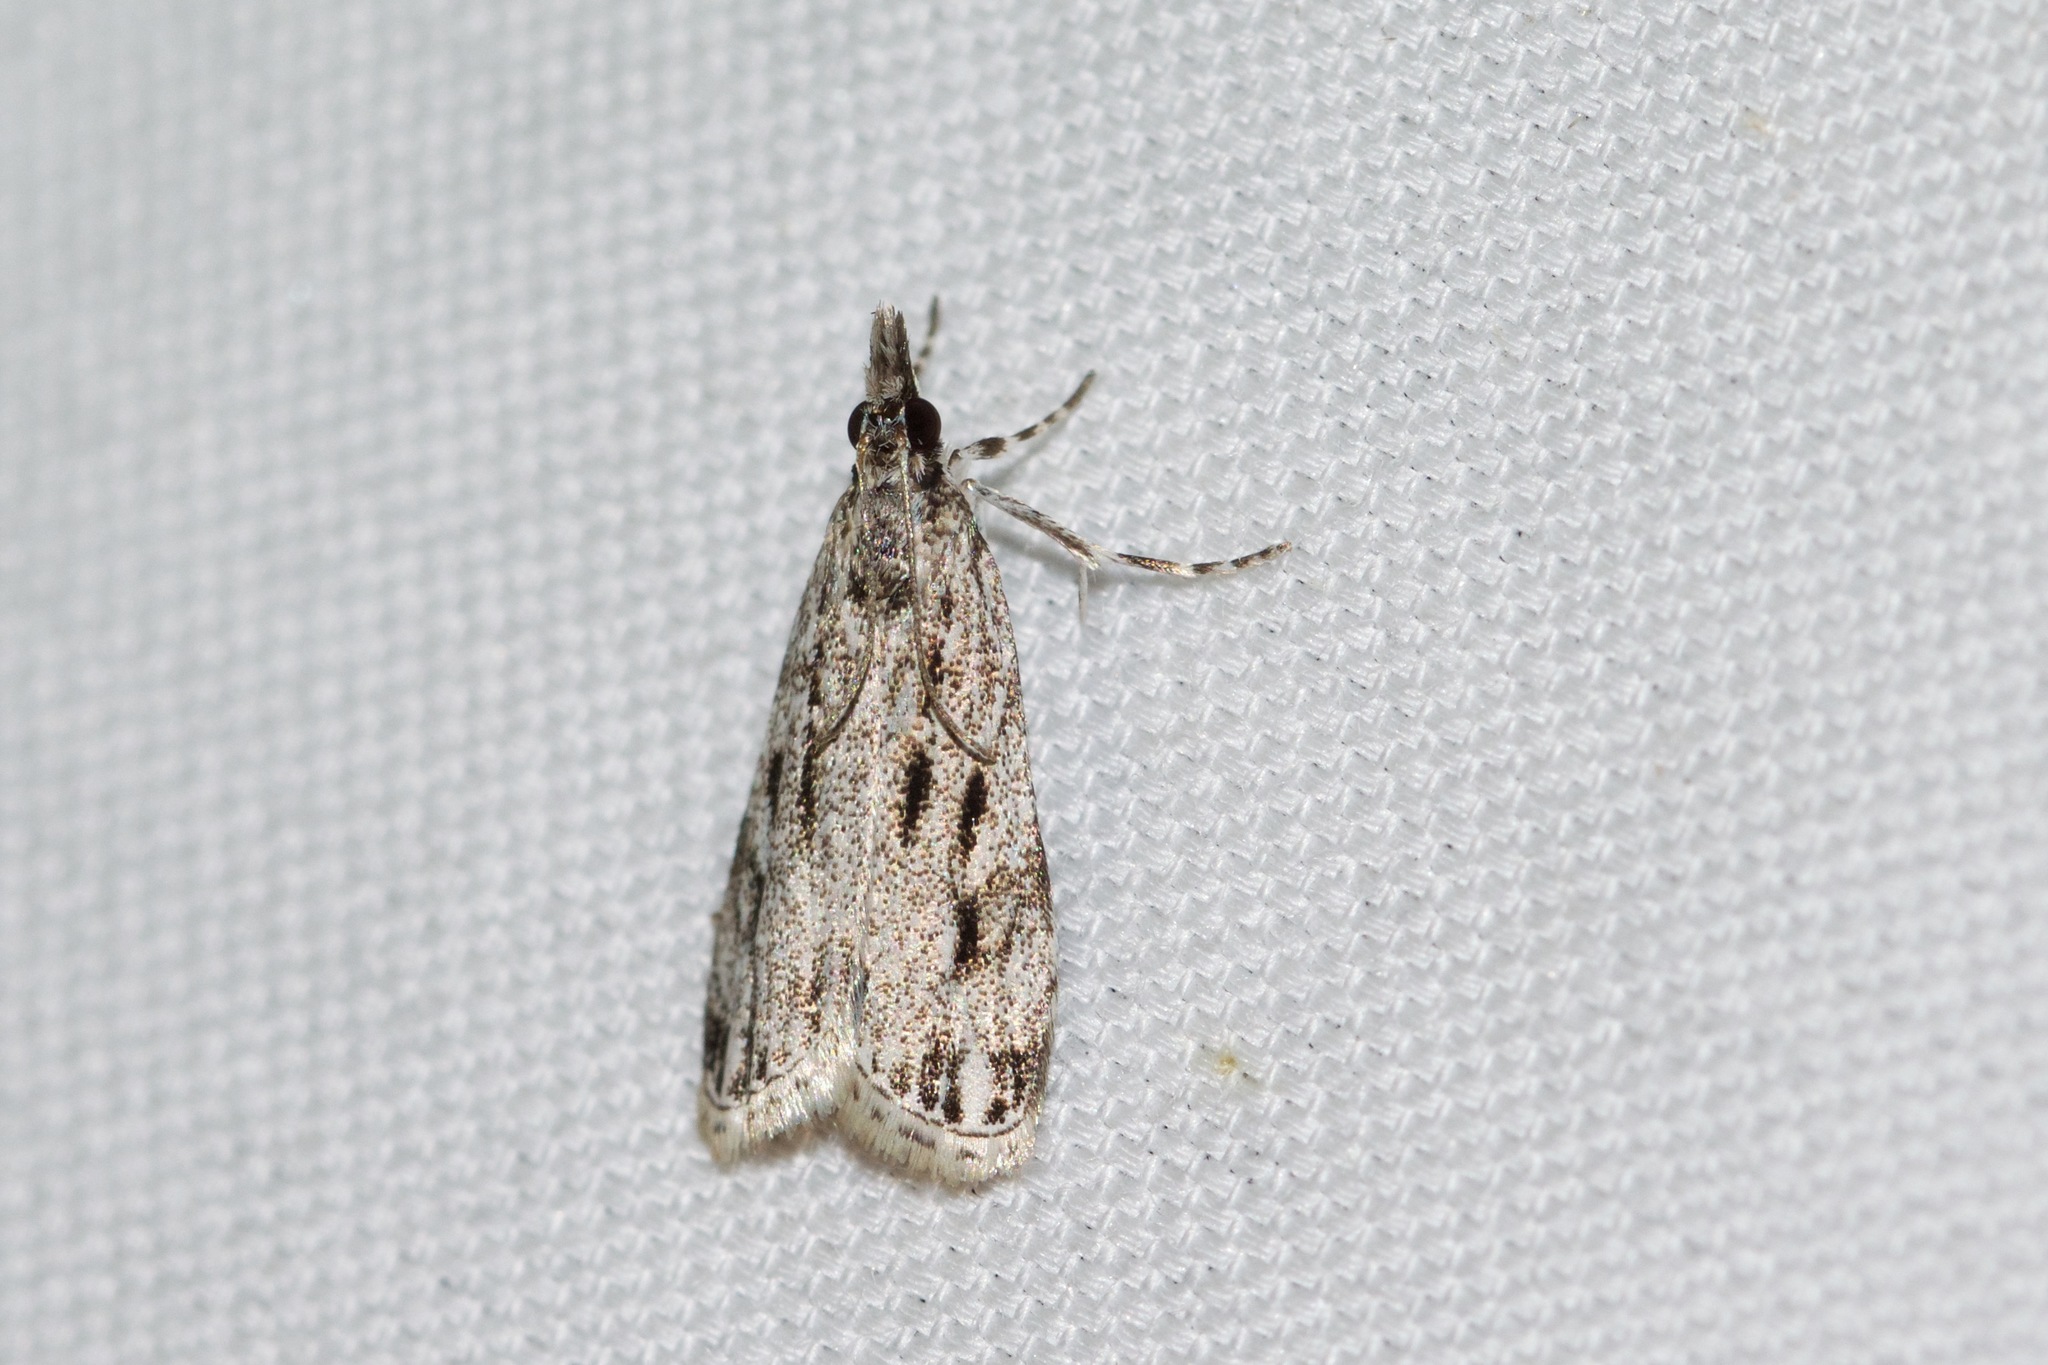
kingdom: Animalia
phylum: Arthropoda
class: Insecta
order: Lepidoptera
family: Crambidae
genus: Eudonia
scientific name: Eudonia strigalis
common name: Striped eudonia moth
